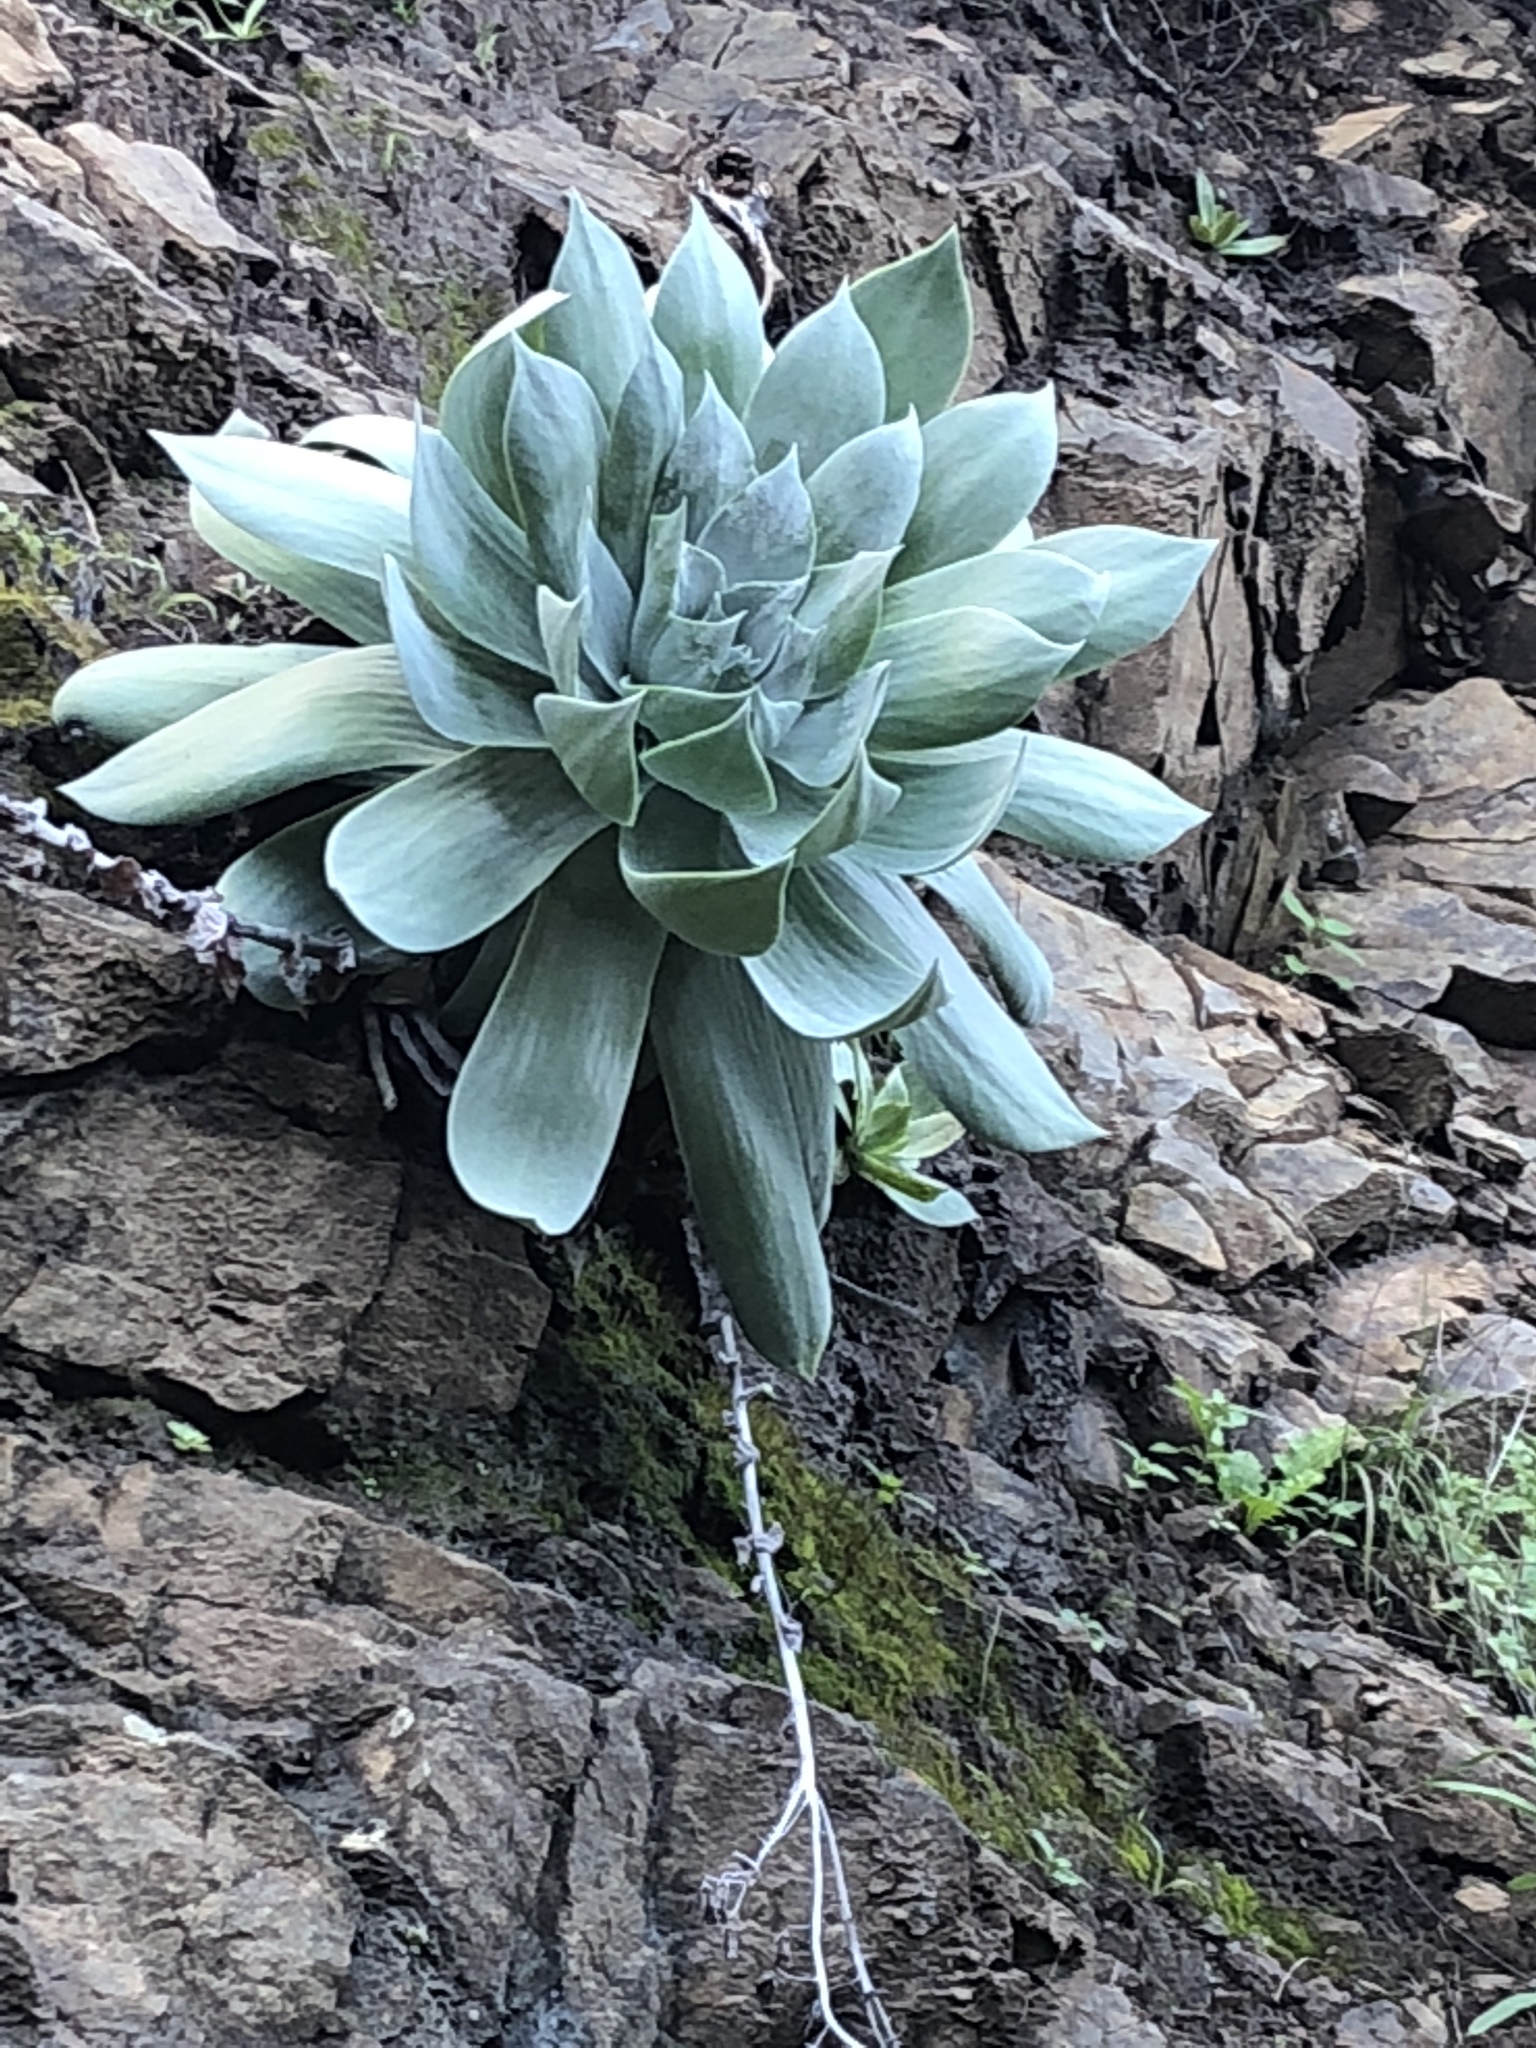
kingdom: Plantae
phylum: Tracheophyta
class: Magnoliopsida
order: Saxifragales
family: Crassulaceae
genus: Dudleya
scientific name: Dudleya pulverulenta
